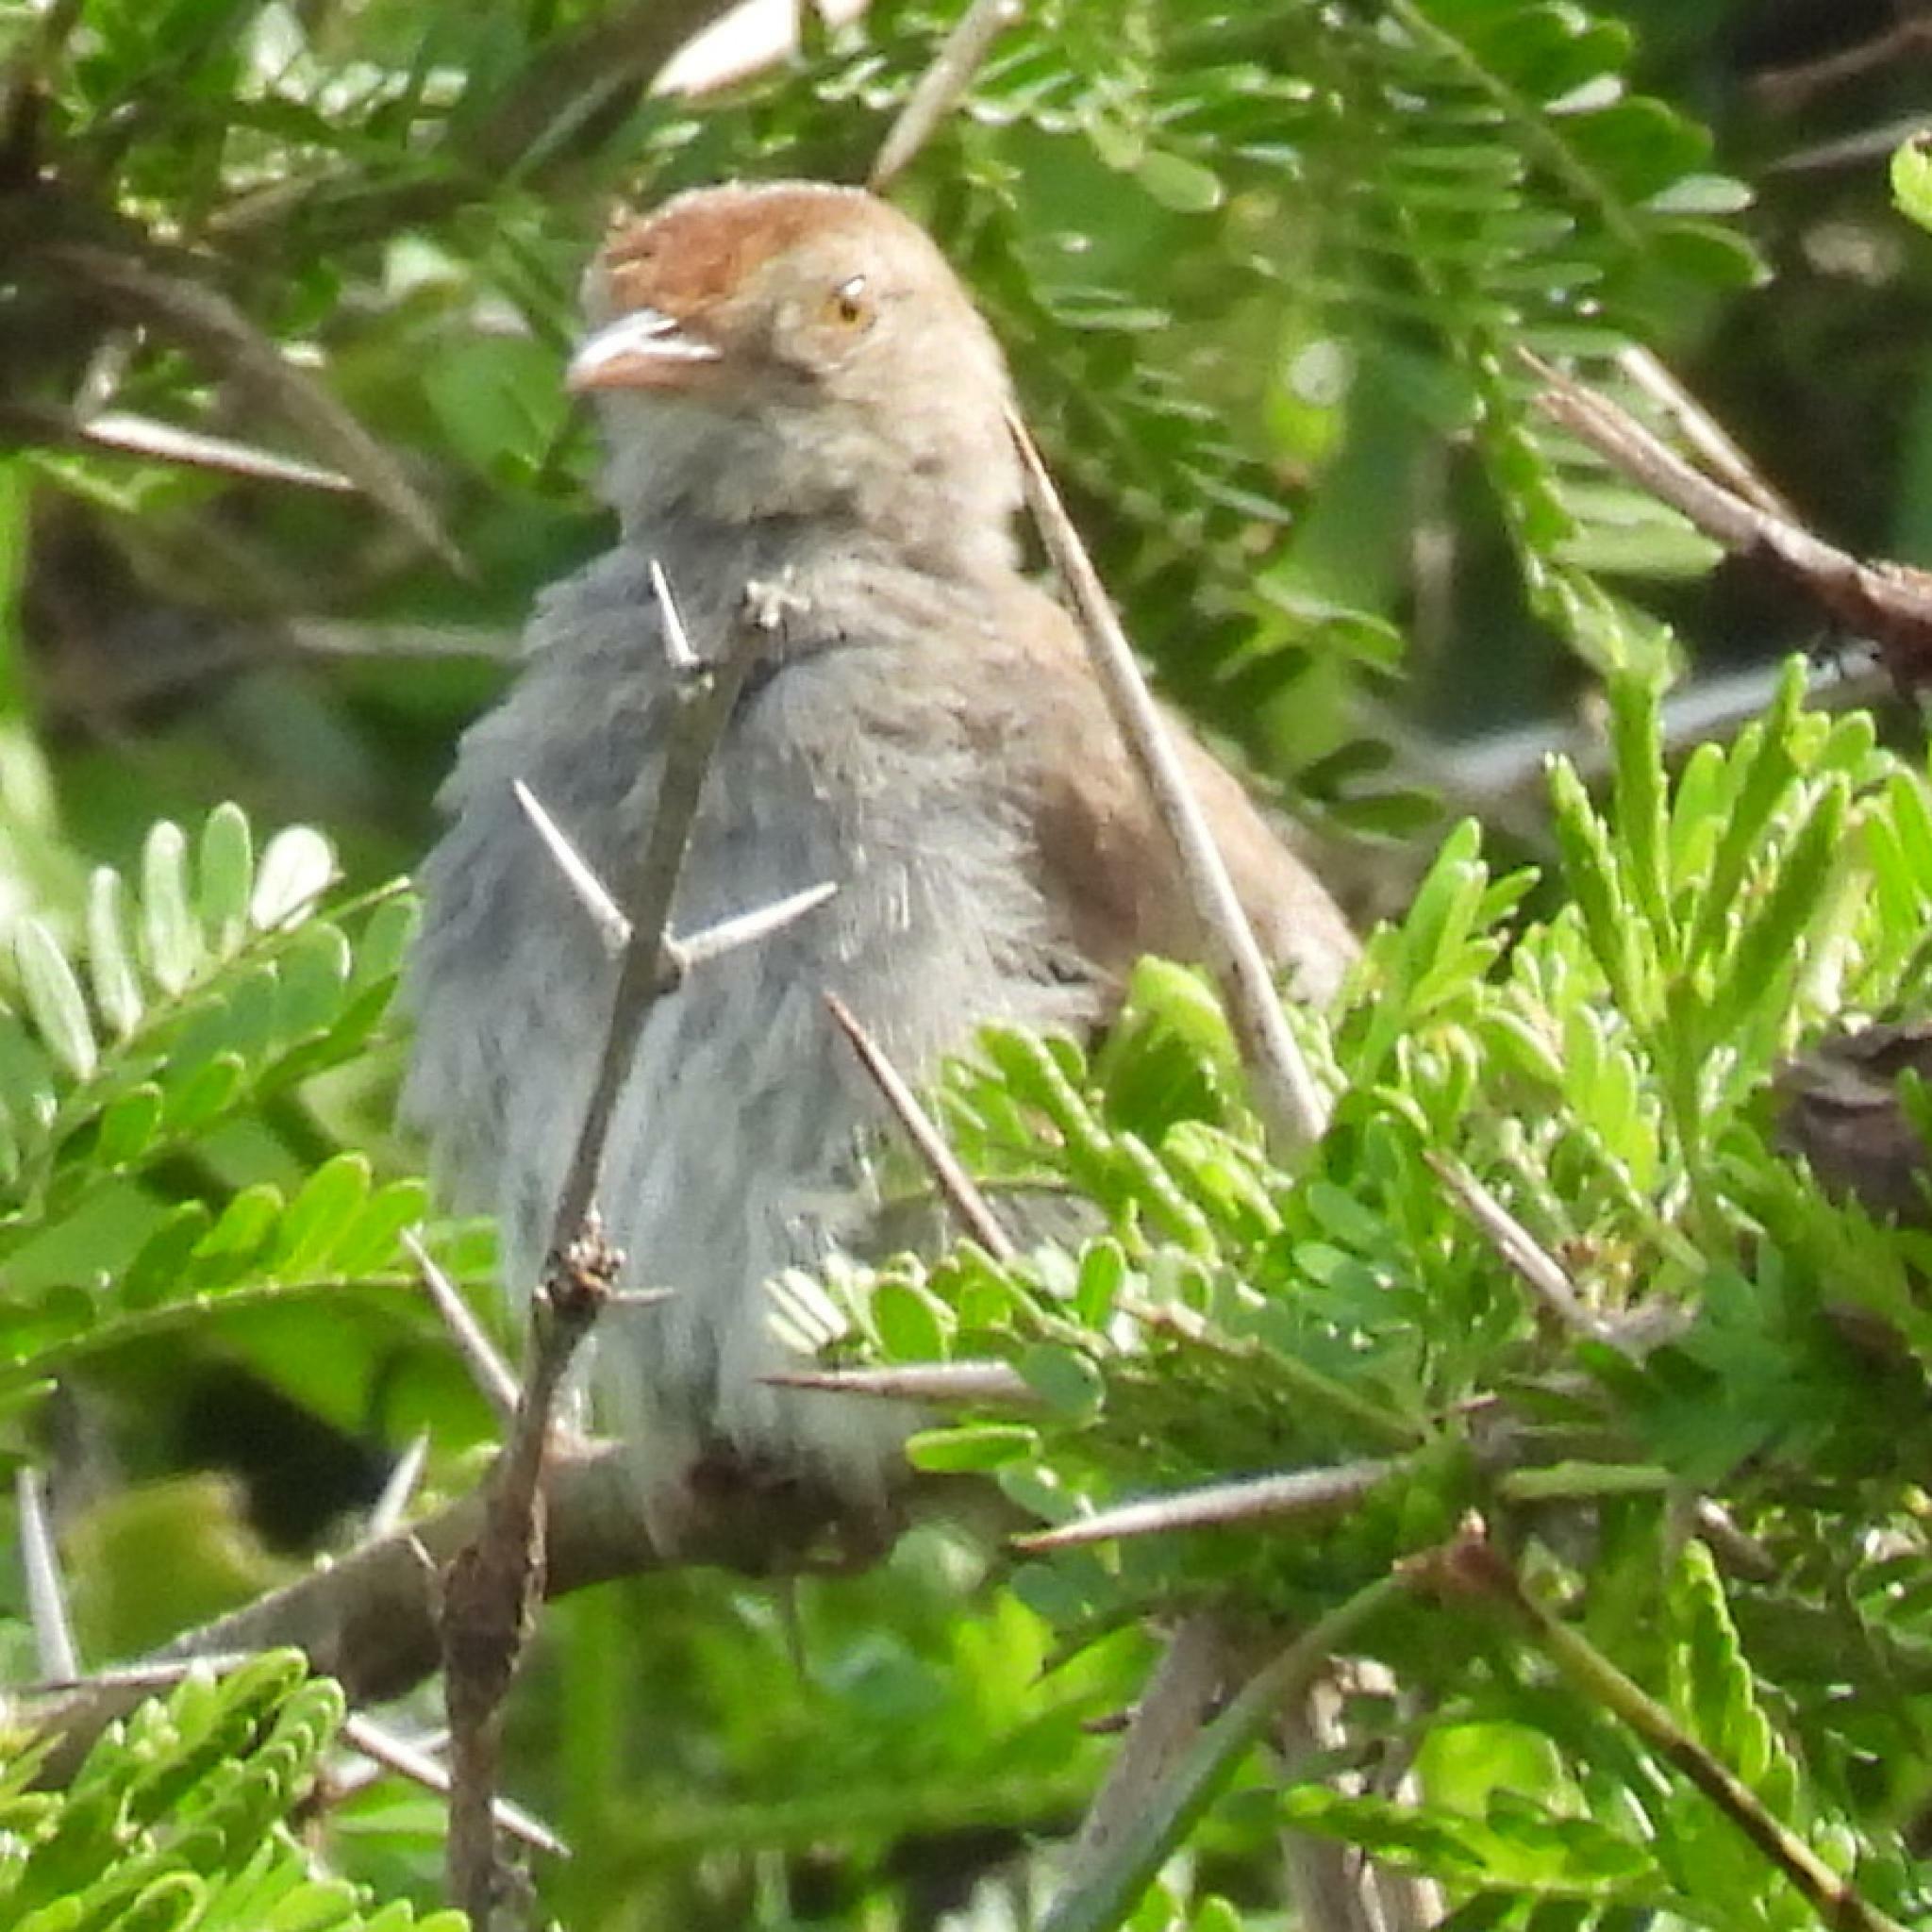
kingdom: Animalia
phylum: Chordata
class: Aves
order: Passeriformes
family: Cisticolidae
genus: Cisticola
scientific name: Cisticola fulvicapilla
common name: Neddicky
